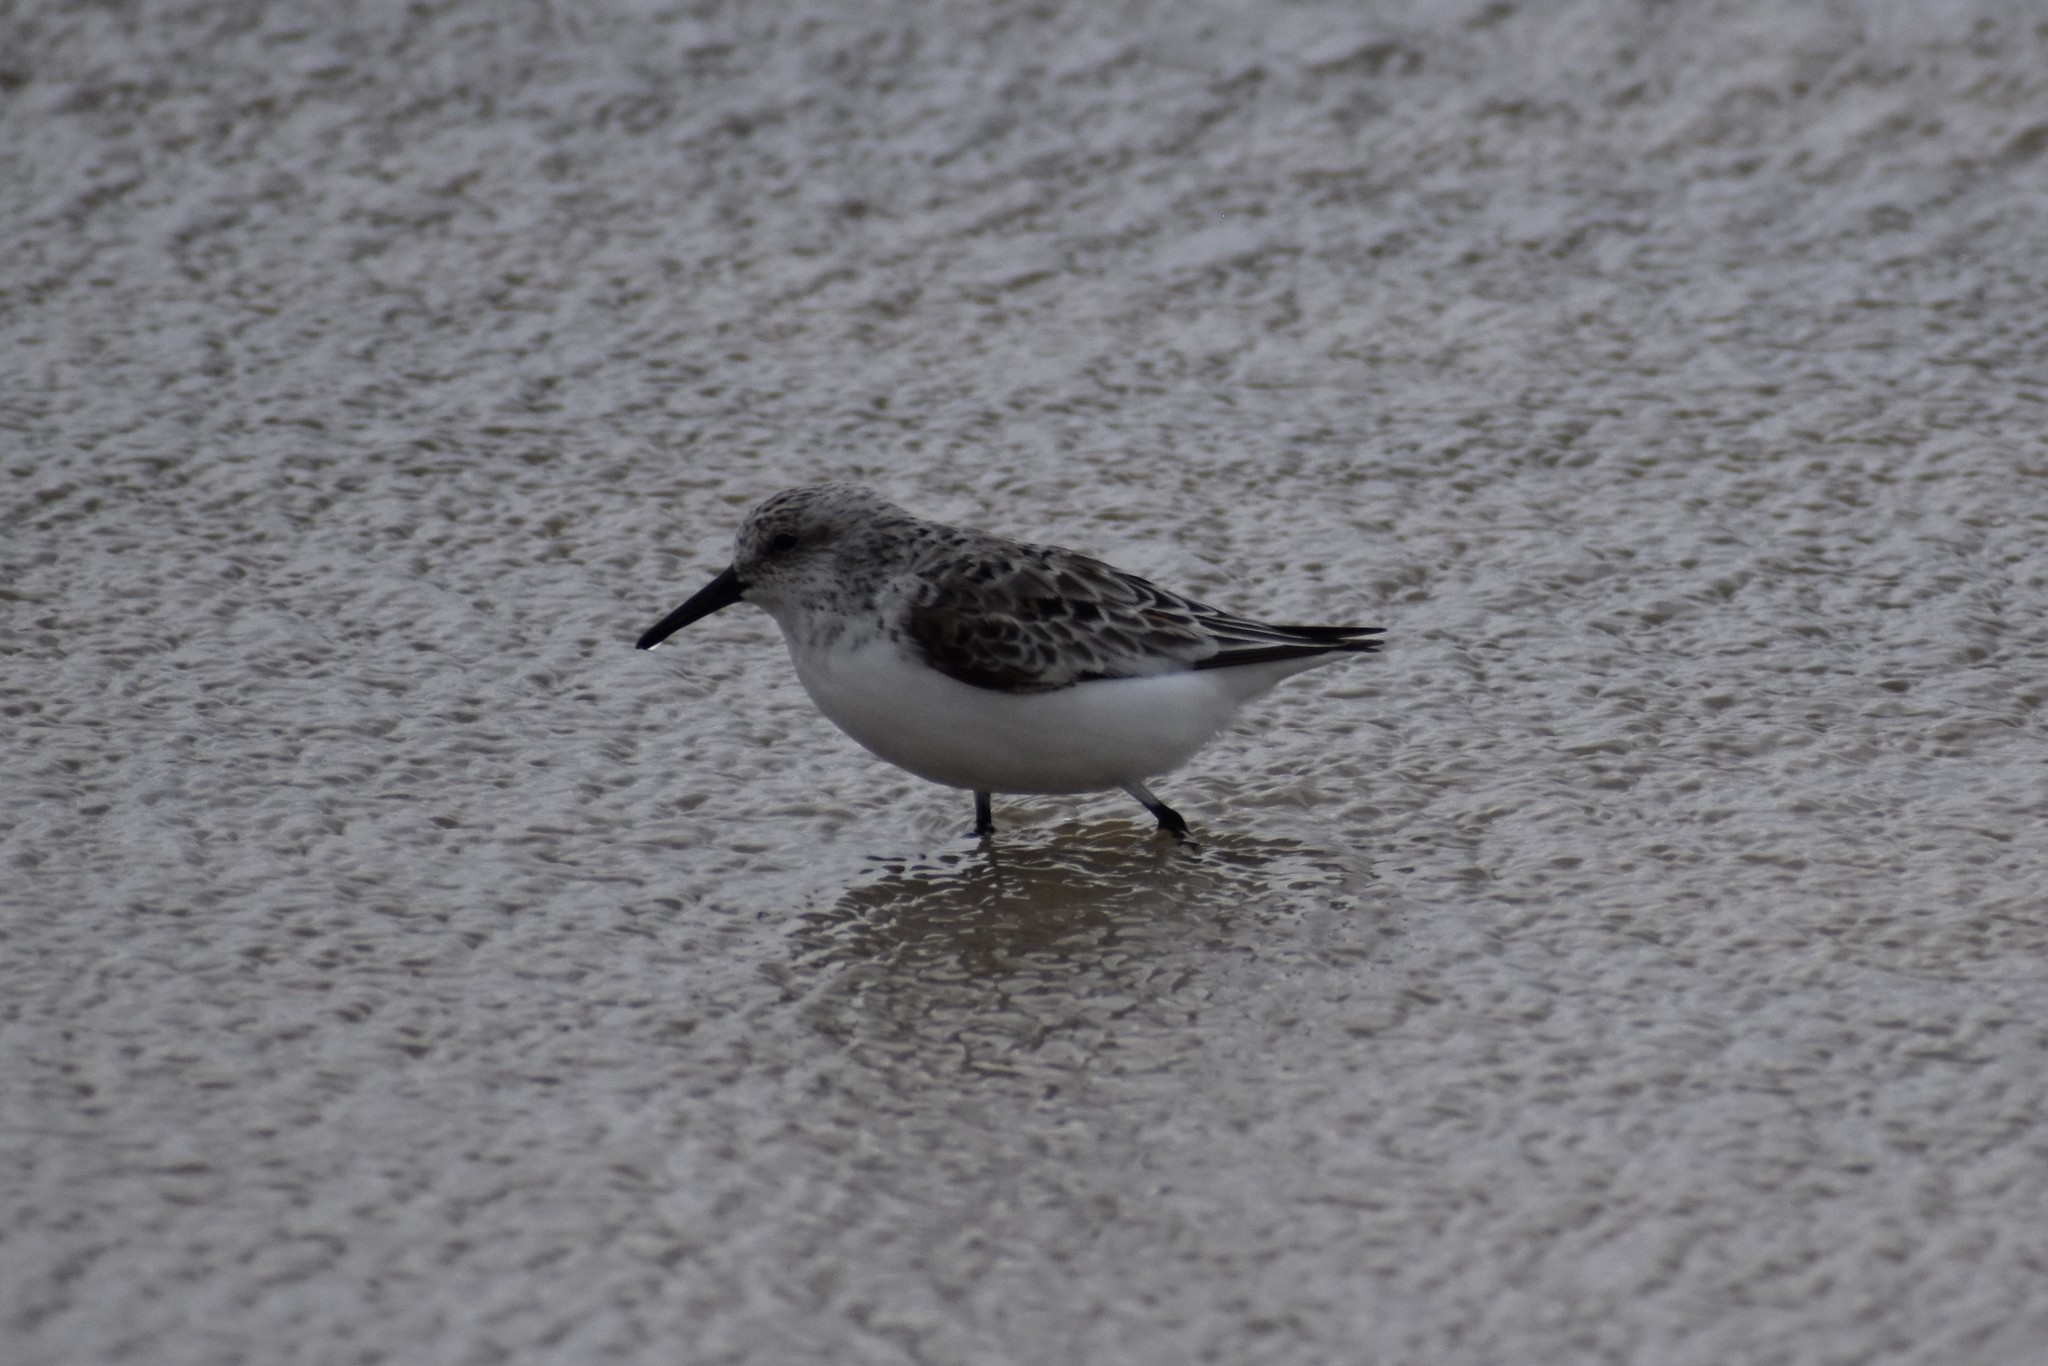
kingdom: Animalia
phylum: Chordata
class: Aves
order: Charadriiformes
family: Scolopacidae
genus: Calidris
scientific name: Calidris alba
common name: Sanderling
